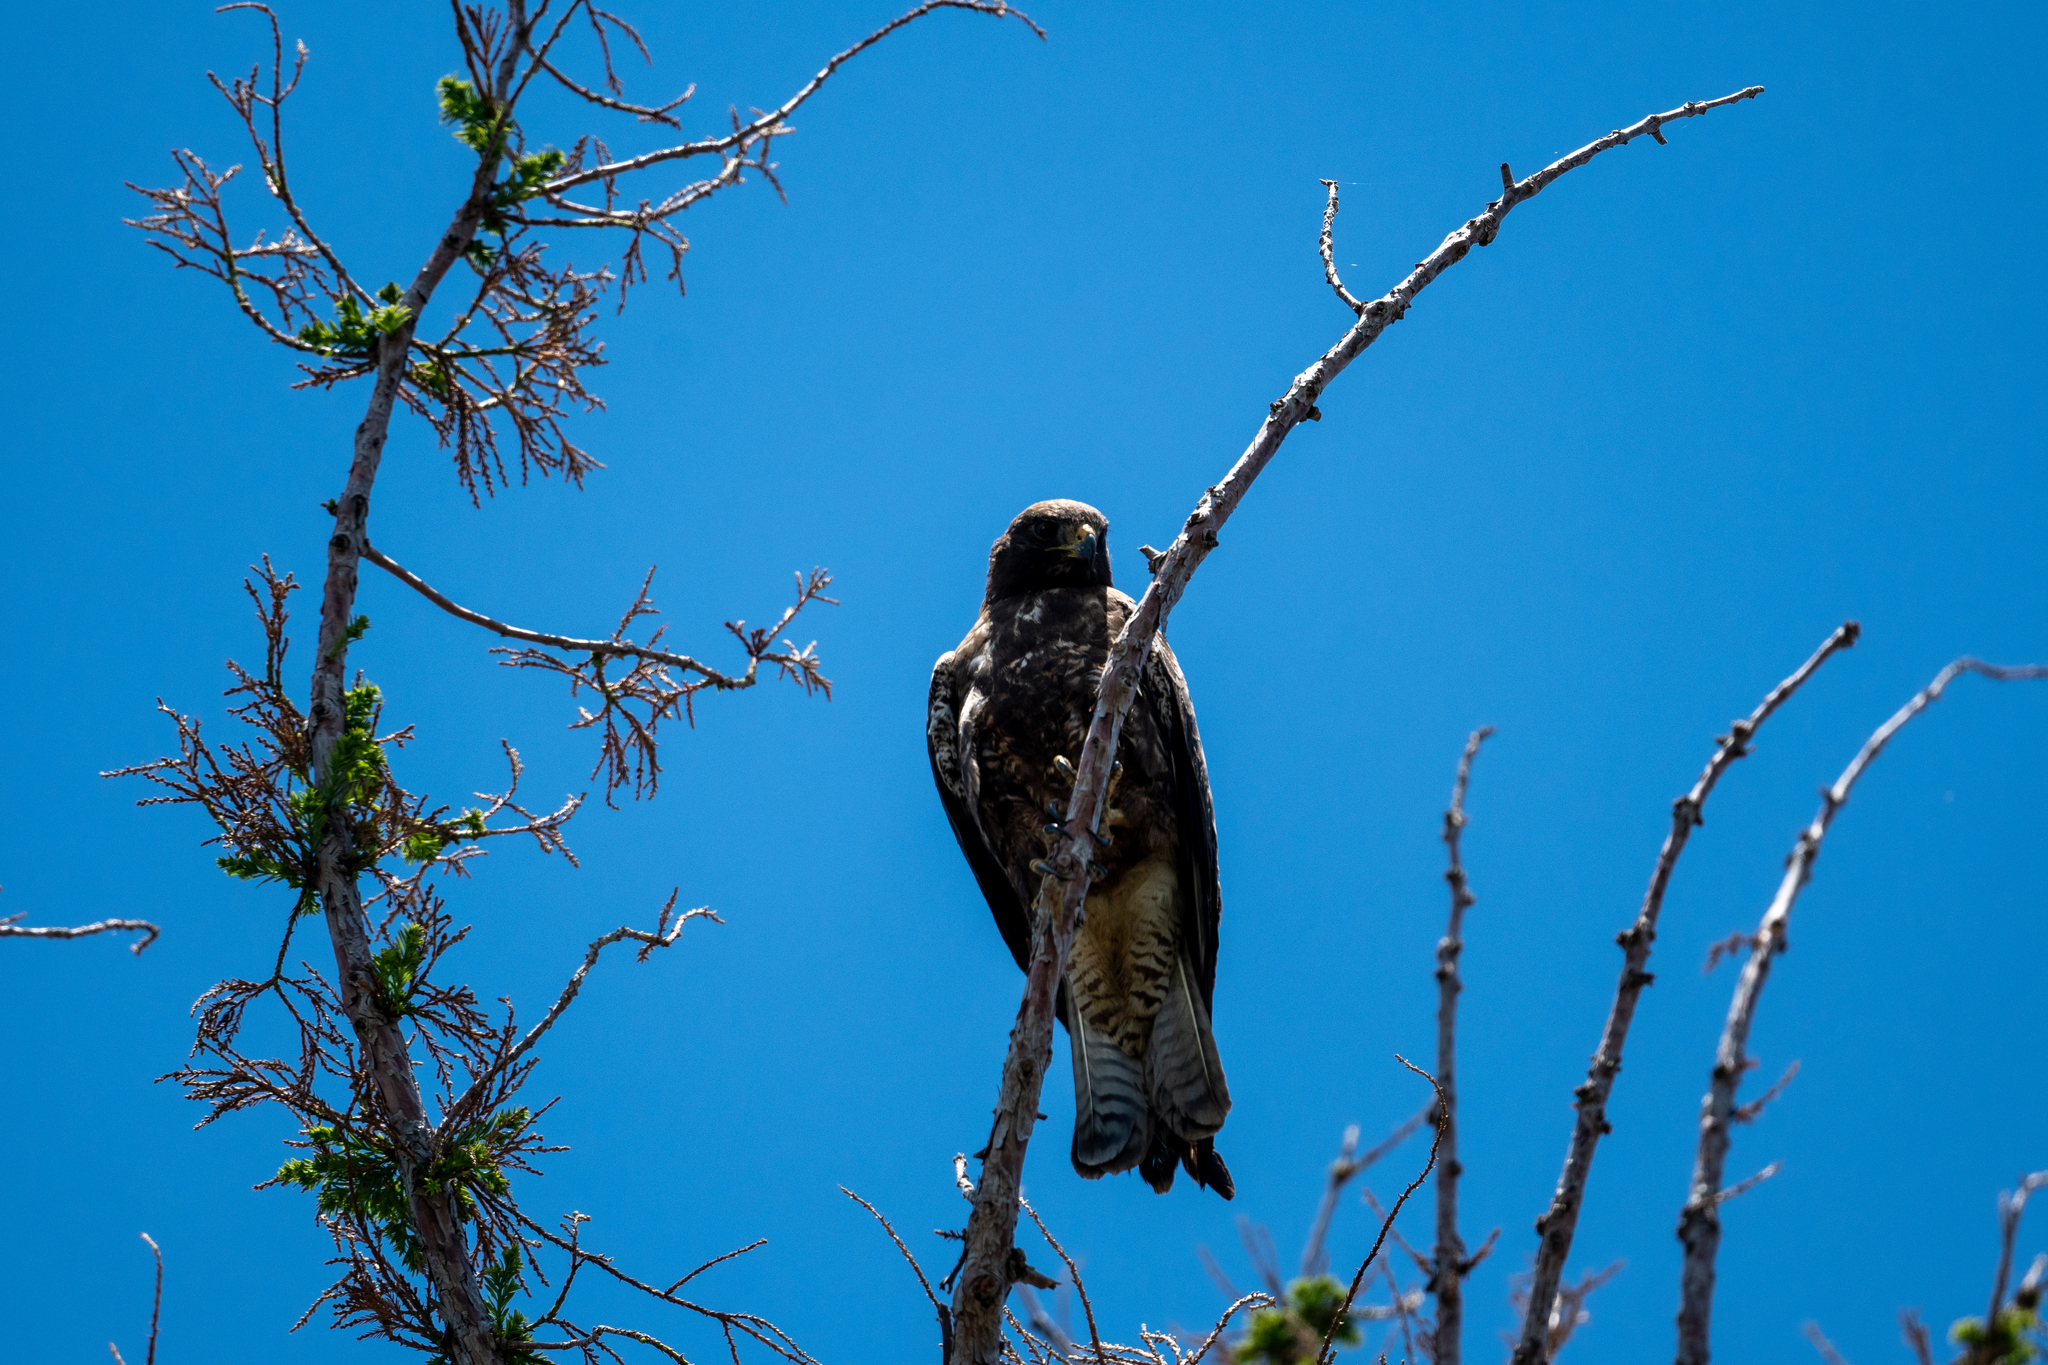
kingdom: Animalia
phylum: Chordata
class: Aves
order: Accipitriformes
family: Accipitridae
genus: Buteo
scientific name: Buteo swainsoni
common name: Swainson's hawk
